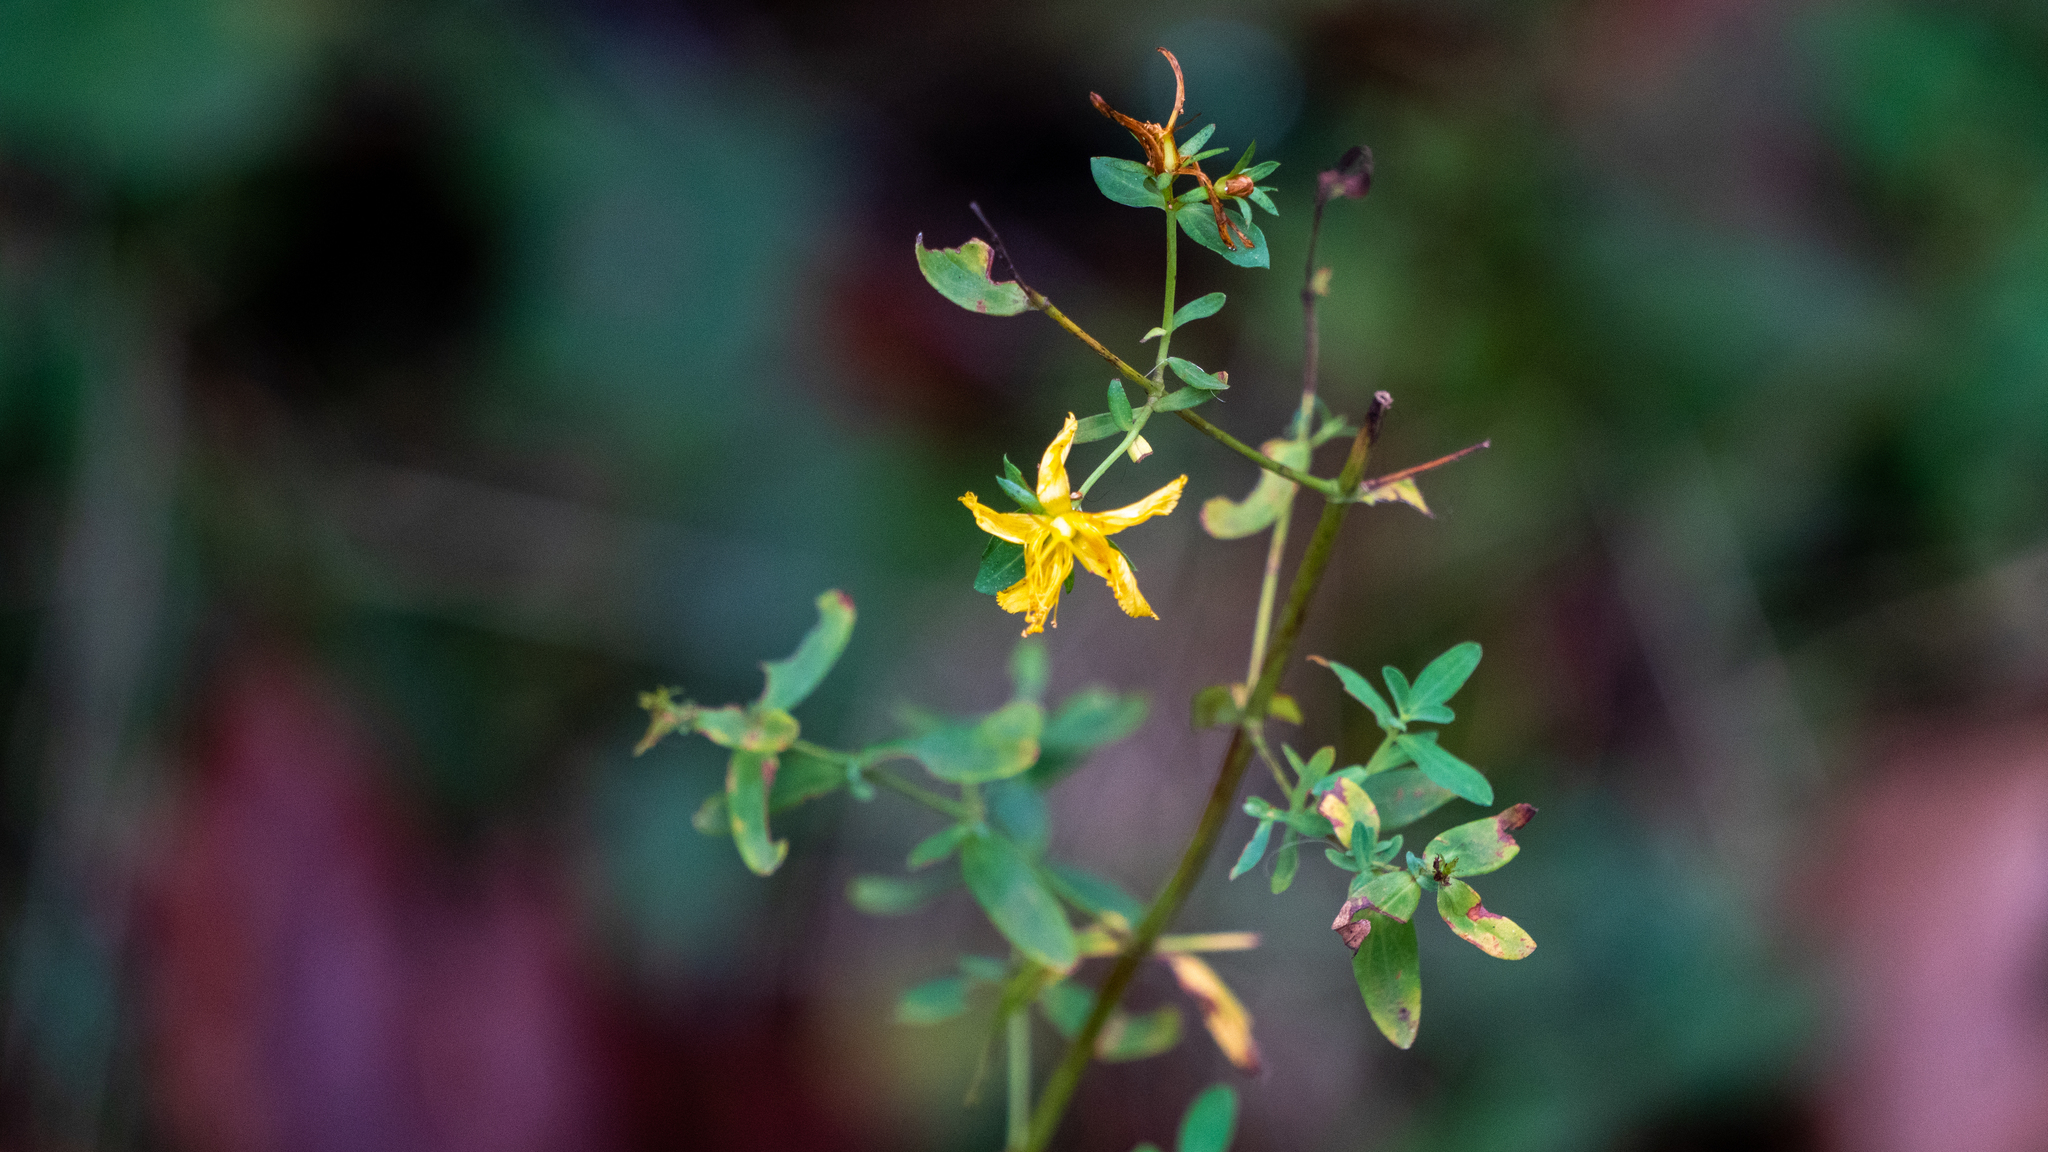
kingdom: Plantae
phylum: Tracheophyta
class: Magnoliopsida
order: Malpighiales
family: Hypericaceae
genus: Hypericum
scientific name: Hypericum perforatum
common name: Common st. johnswort
